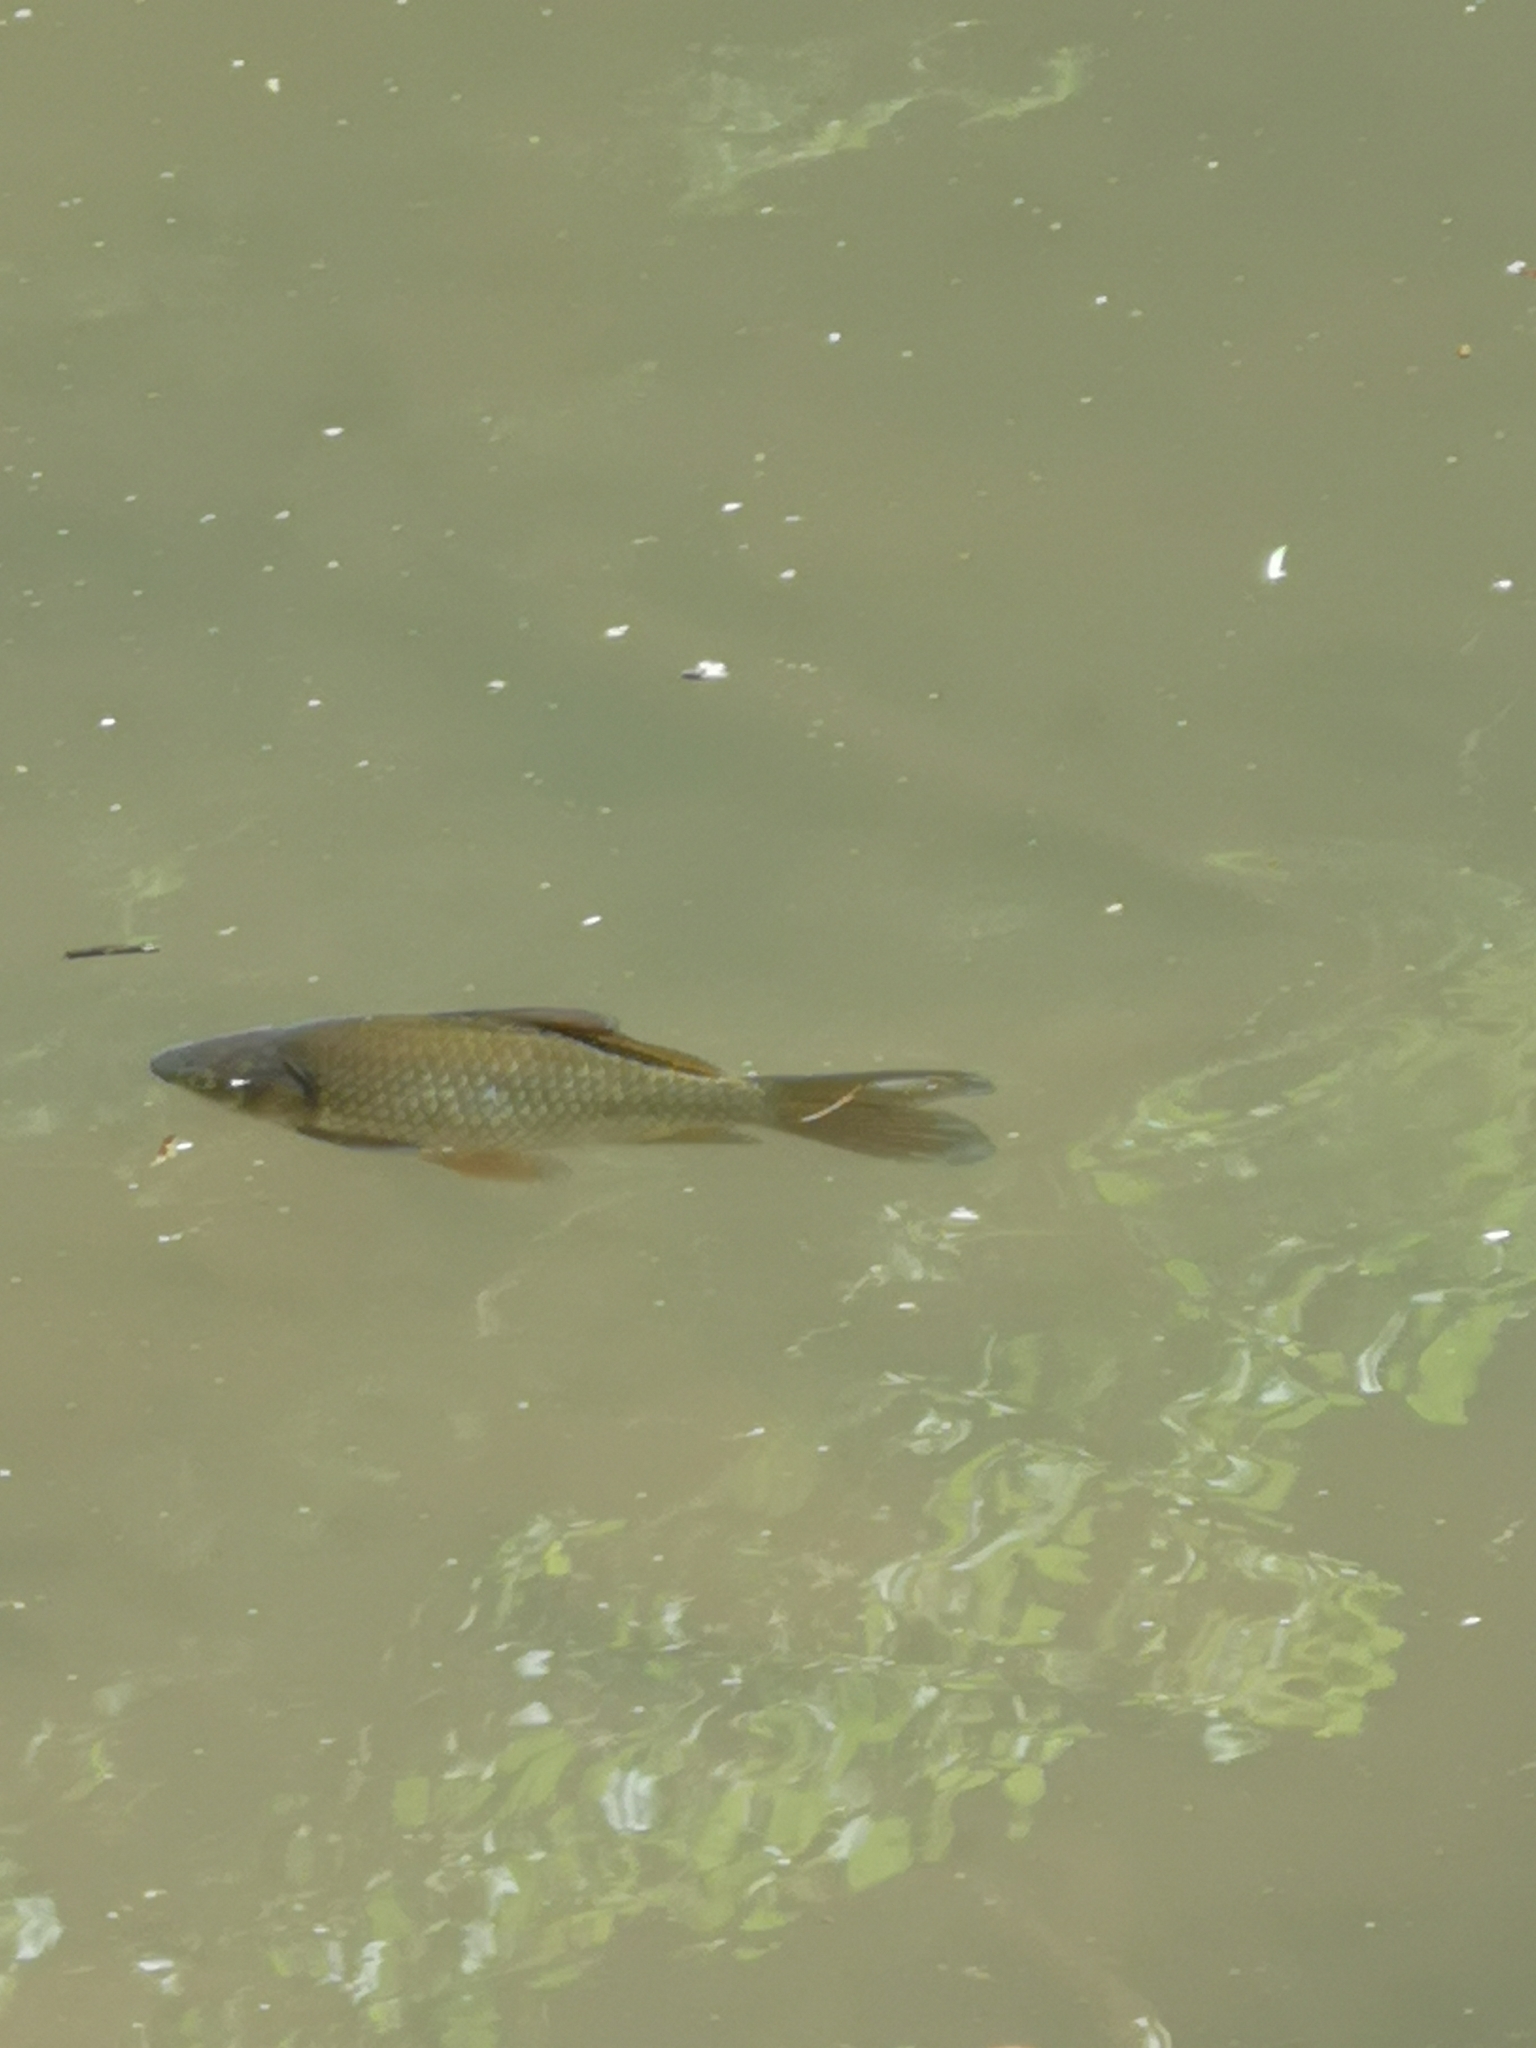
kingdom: Animalia
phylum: Chordata
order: Cypriniformes
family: Cyprinidae
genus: Carassius
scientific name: Carassius gibelio
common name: Prussian carp
